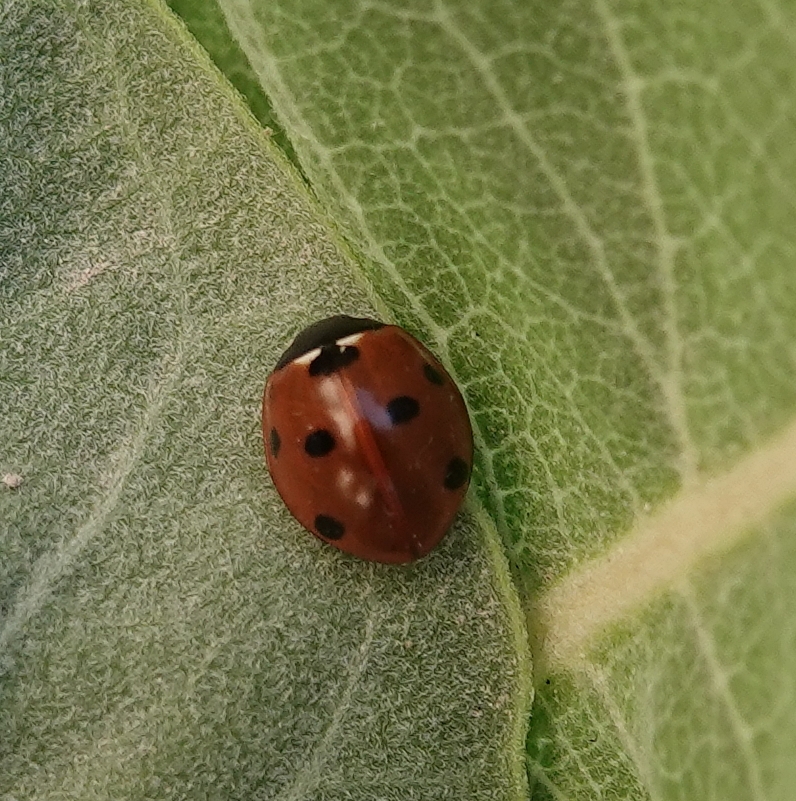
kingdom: Animalia
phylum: Arthropoda
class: Insecta
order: Coleoptera
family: Coccinellidae
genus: Coccinella
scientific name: Coccinella septempunctata
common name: Sevenspotted lady beetle
